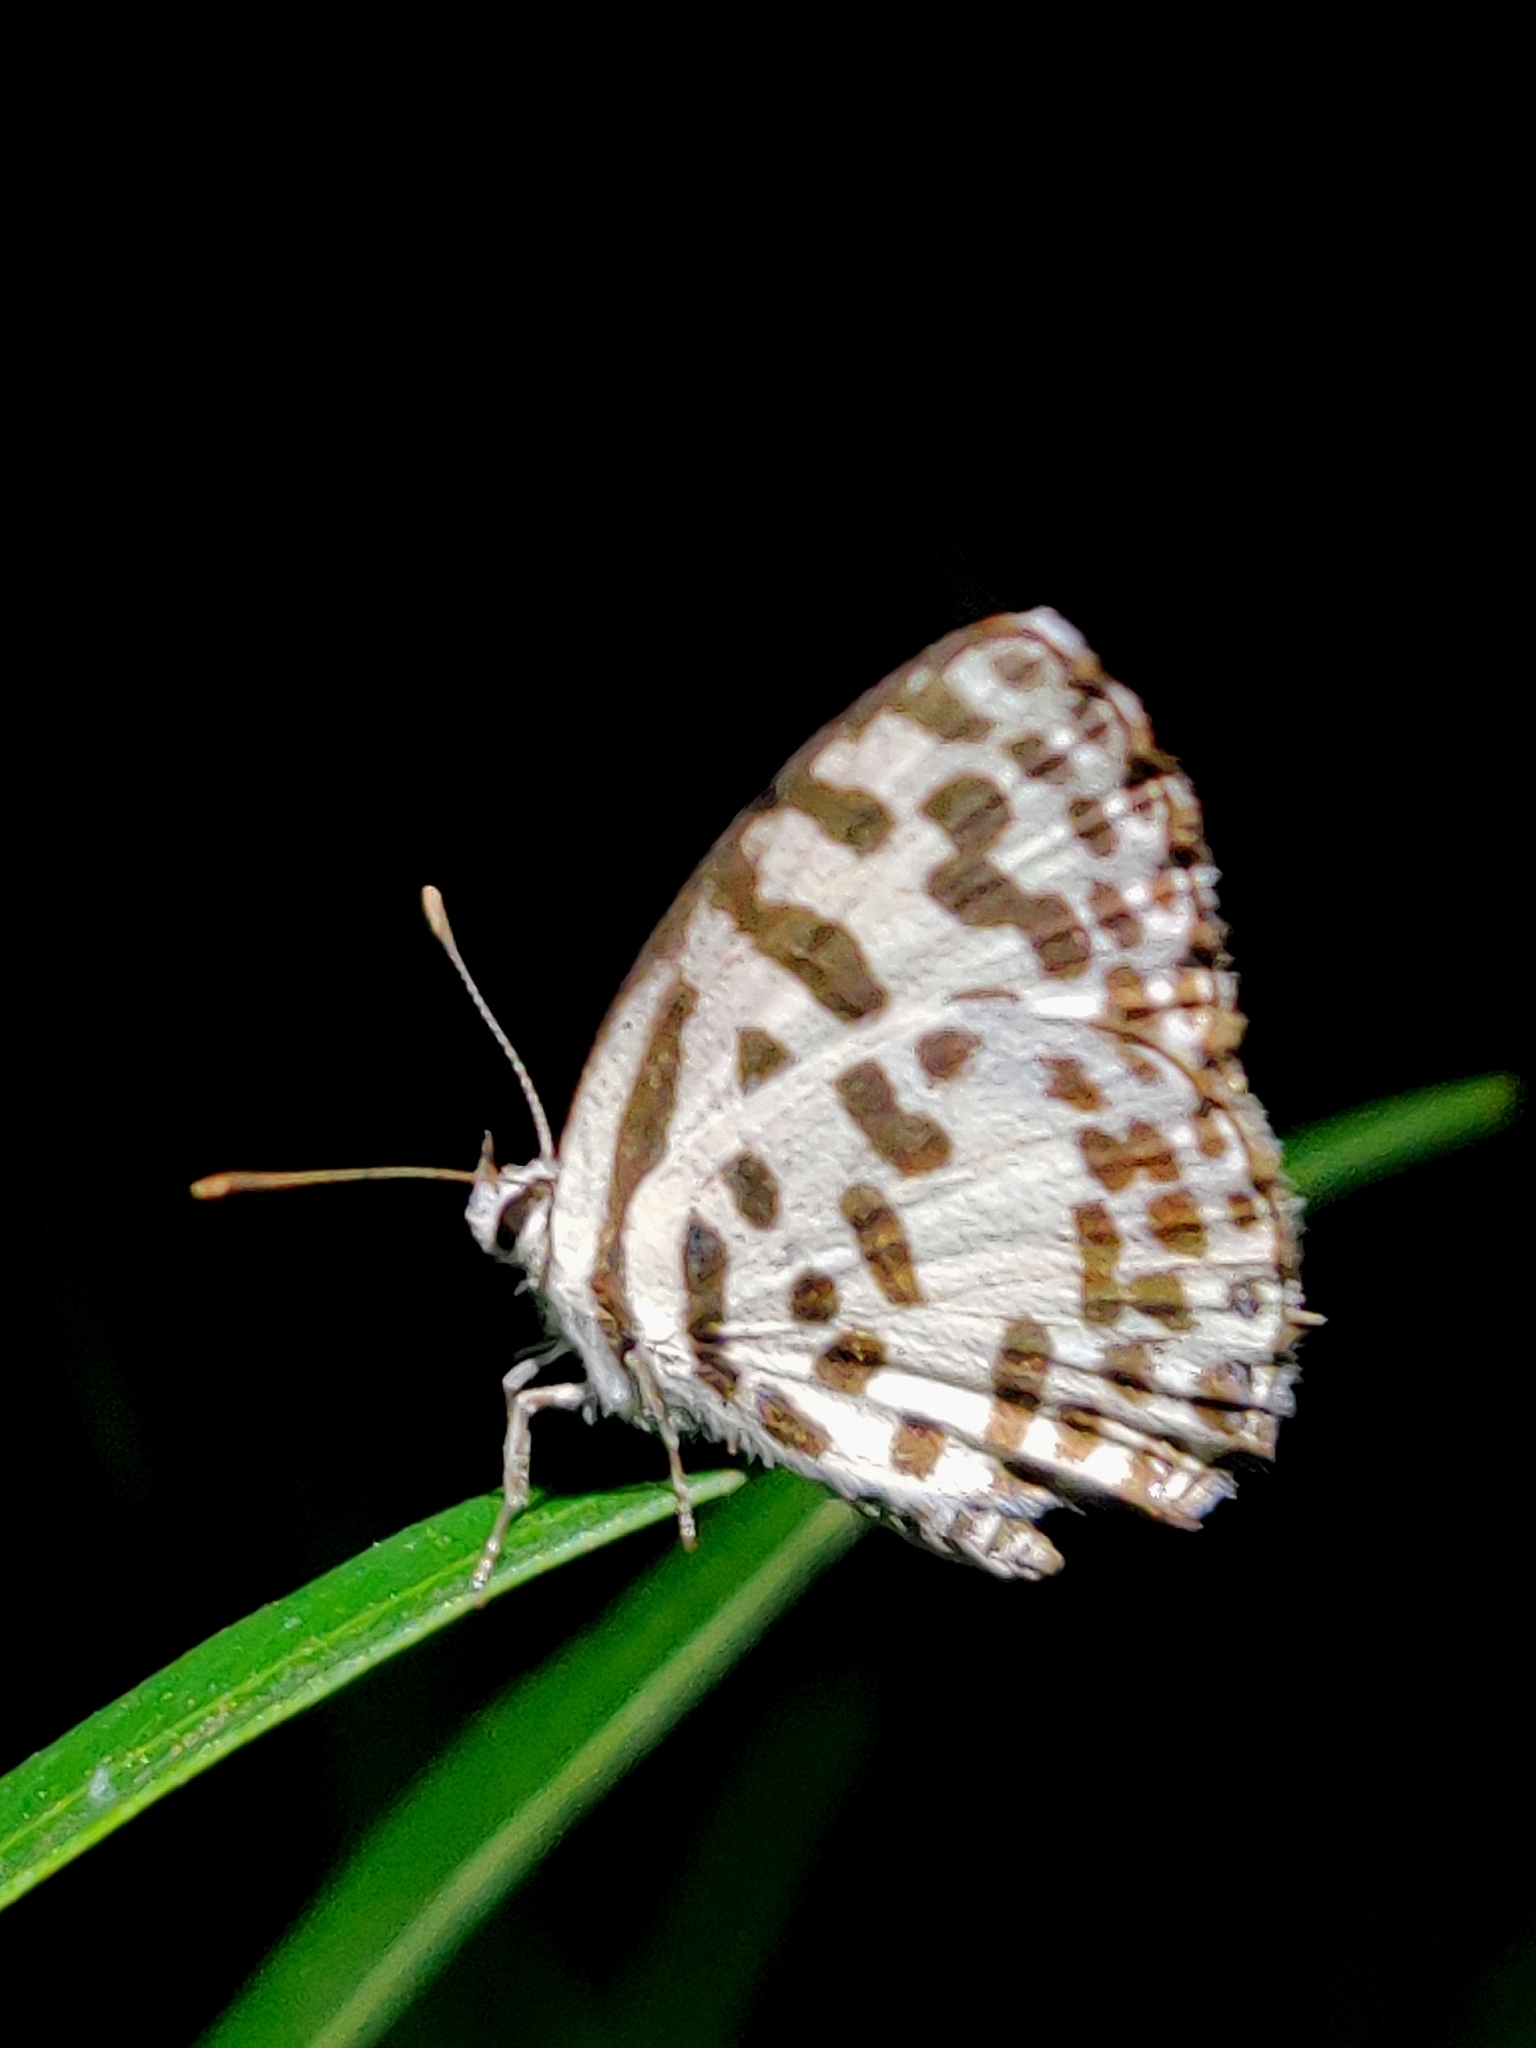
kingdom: Animalia
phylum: Arthropoda
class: Insecta
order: Lepidoptera
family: Lycaenidae
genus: Castalius
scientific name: Castalius rosimon
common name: Common pierrot
